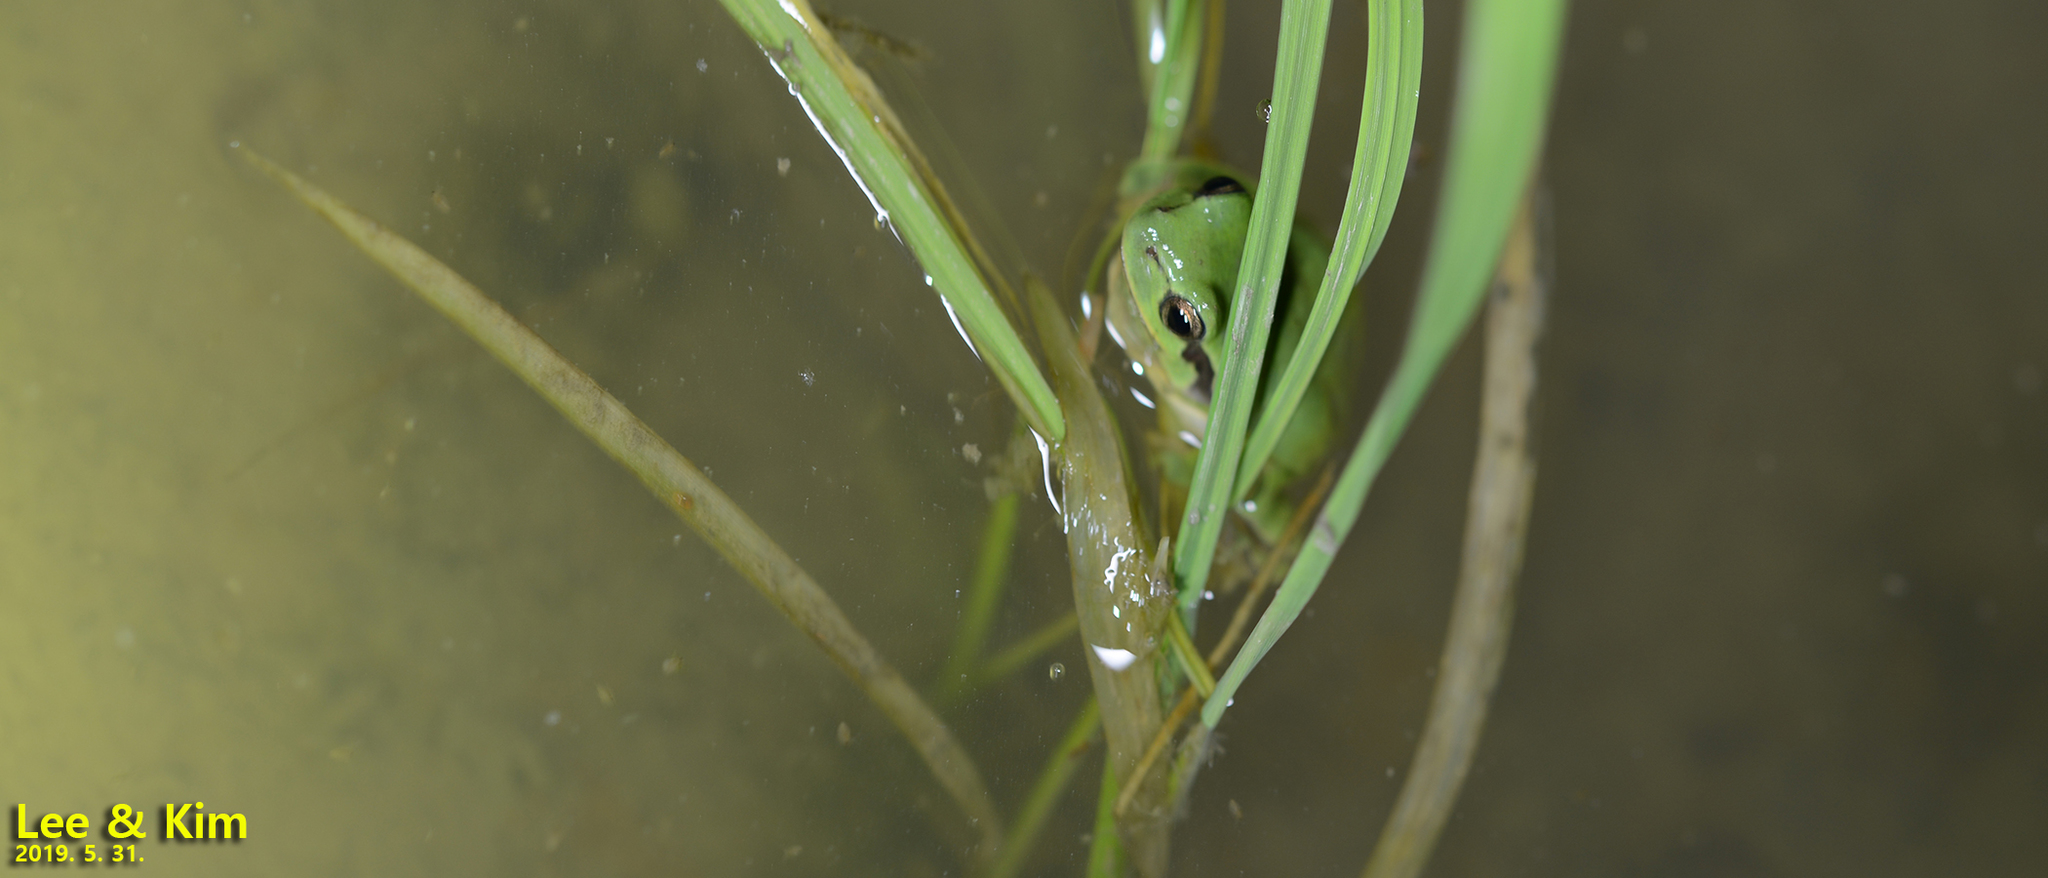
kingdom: Animalia
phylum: Chordata
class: Amphibia
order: Anura
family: Hylidae
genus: Dryophytes
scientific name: Dryophytes immaculatus
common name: North china treefrog
